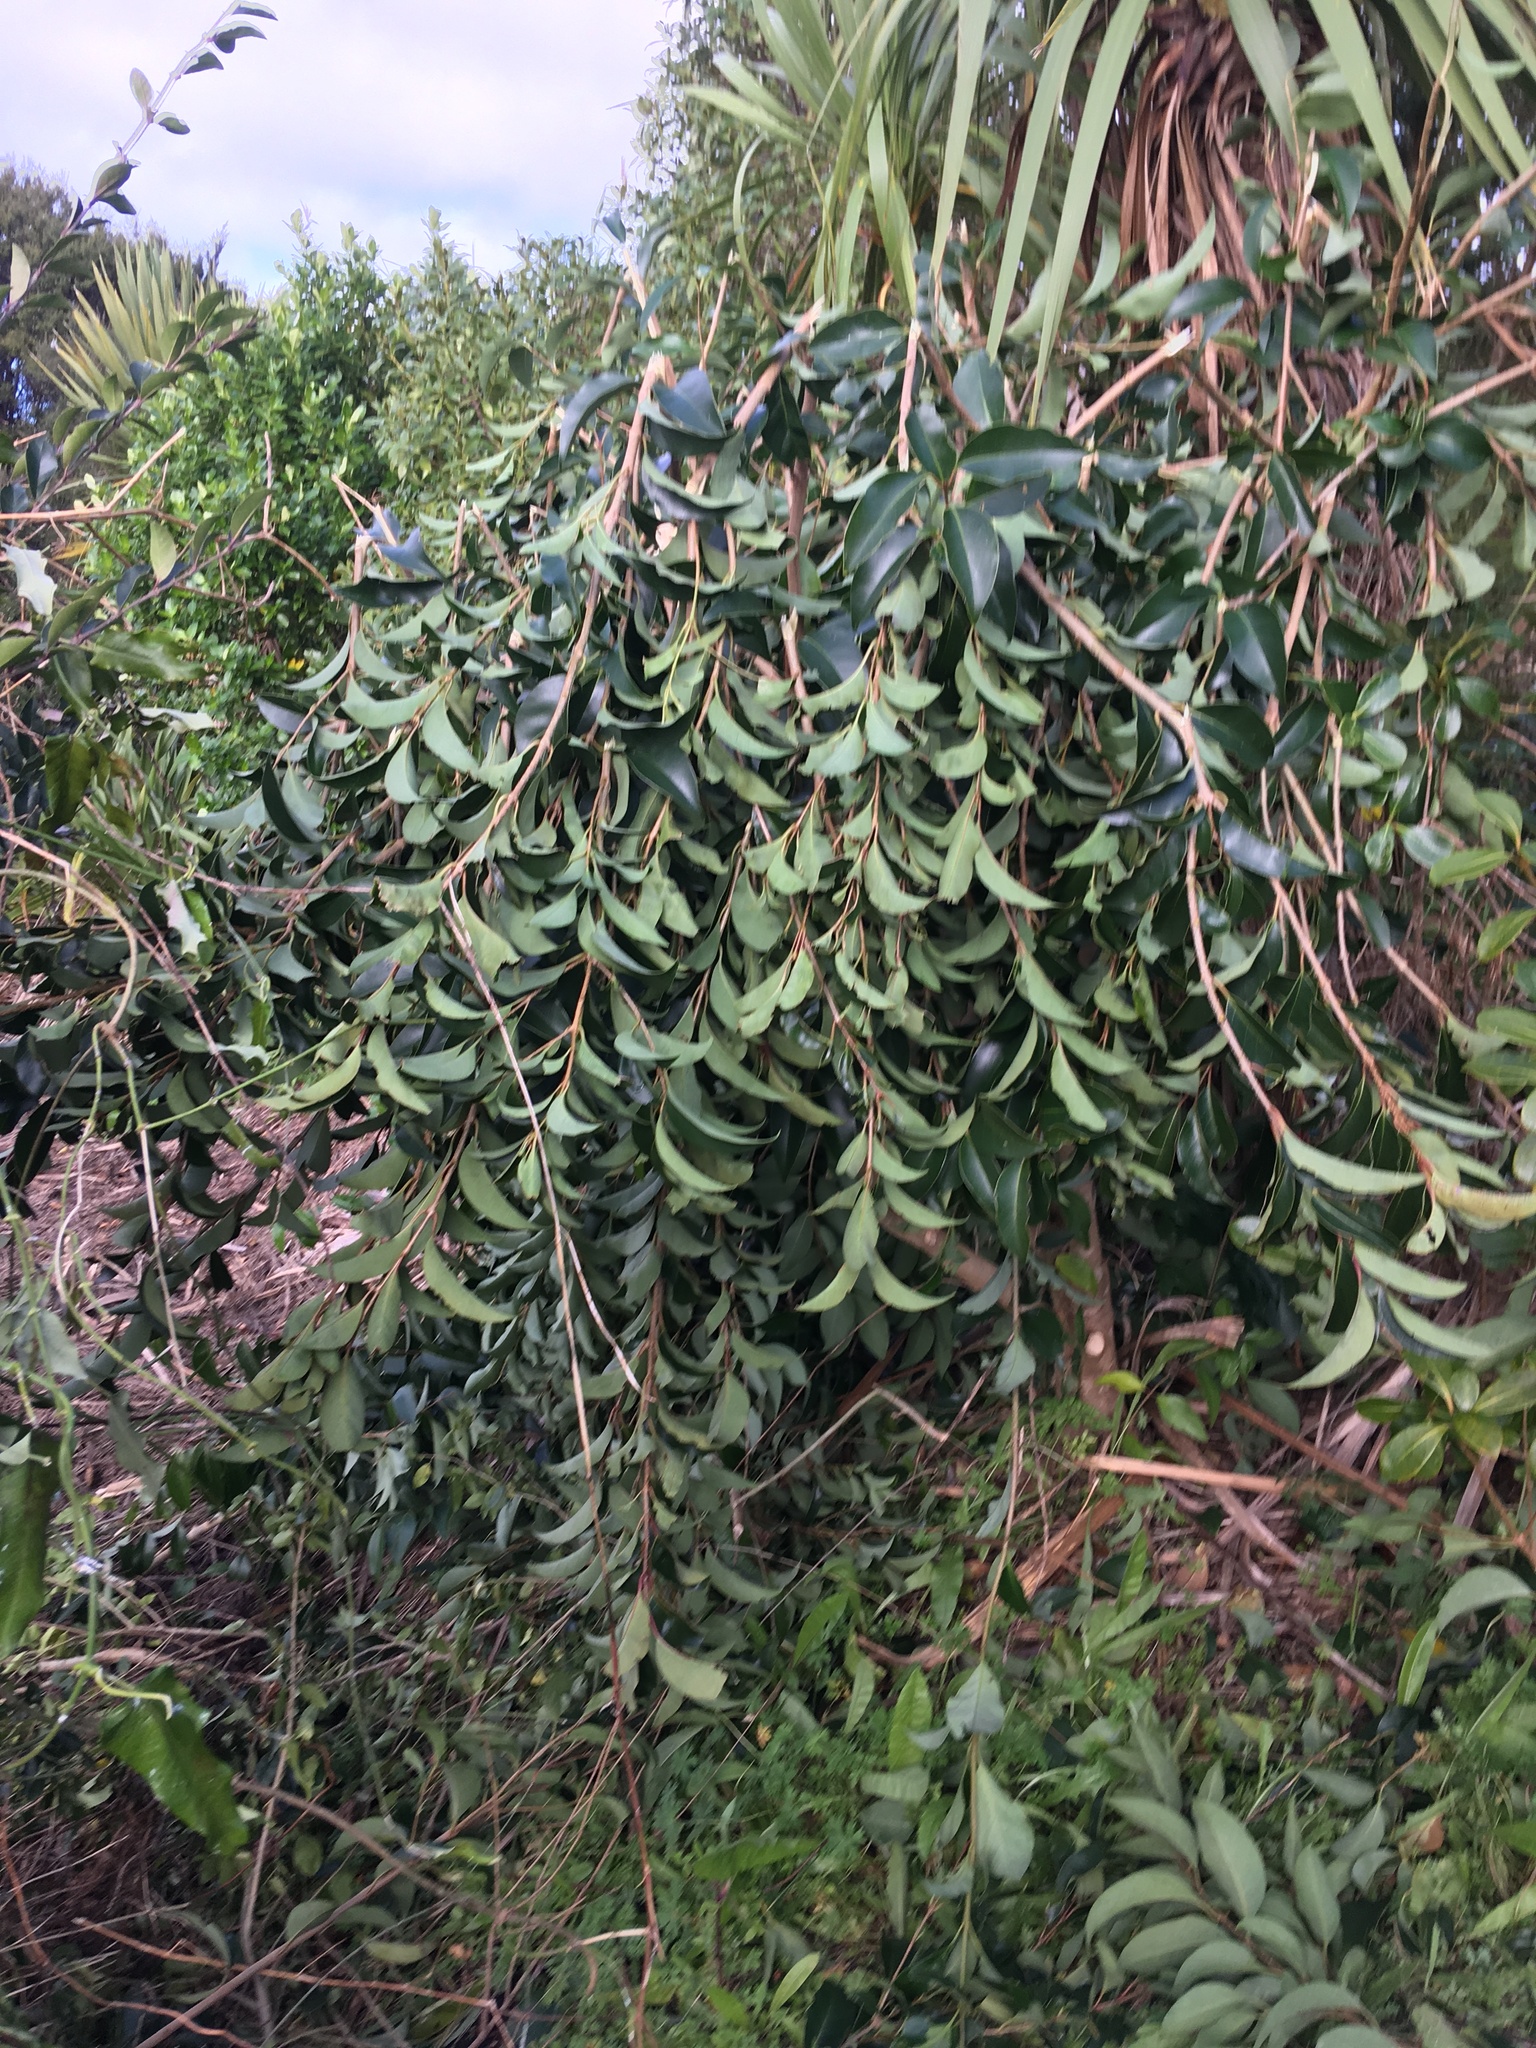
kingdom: Plantae
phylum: Tracheophyta
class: Magnoliopsida
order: Lamiales
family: Oleaceae
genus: Ligustrum
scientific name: Ligustrum lucidum
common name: Glossy privet
